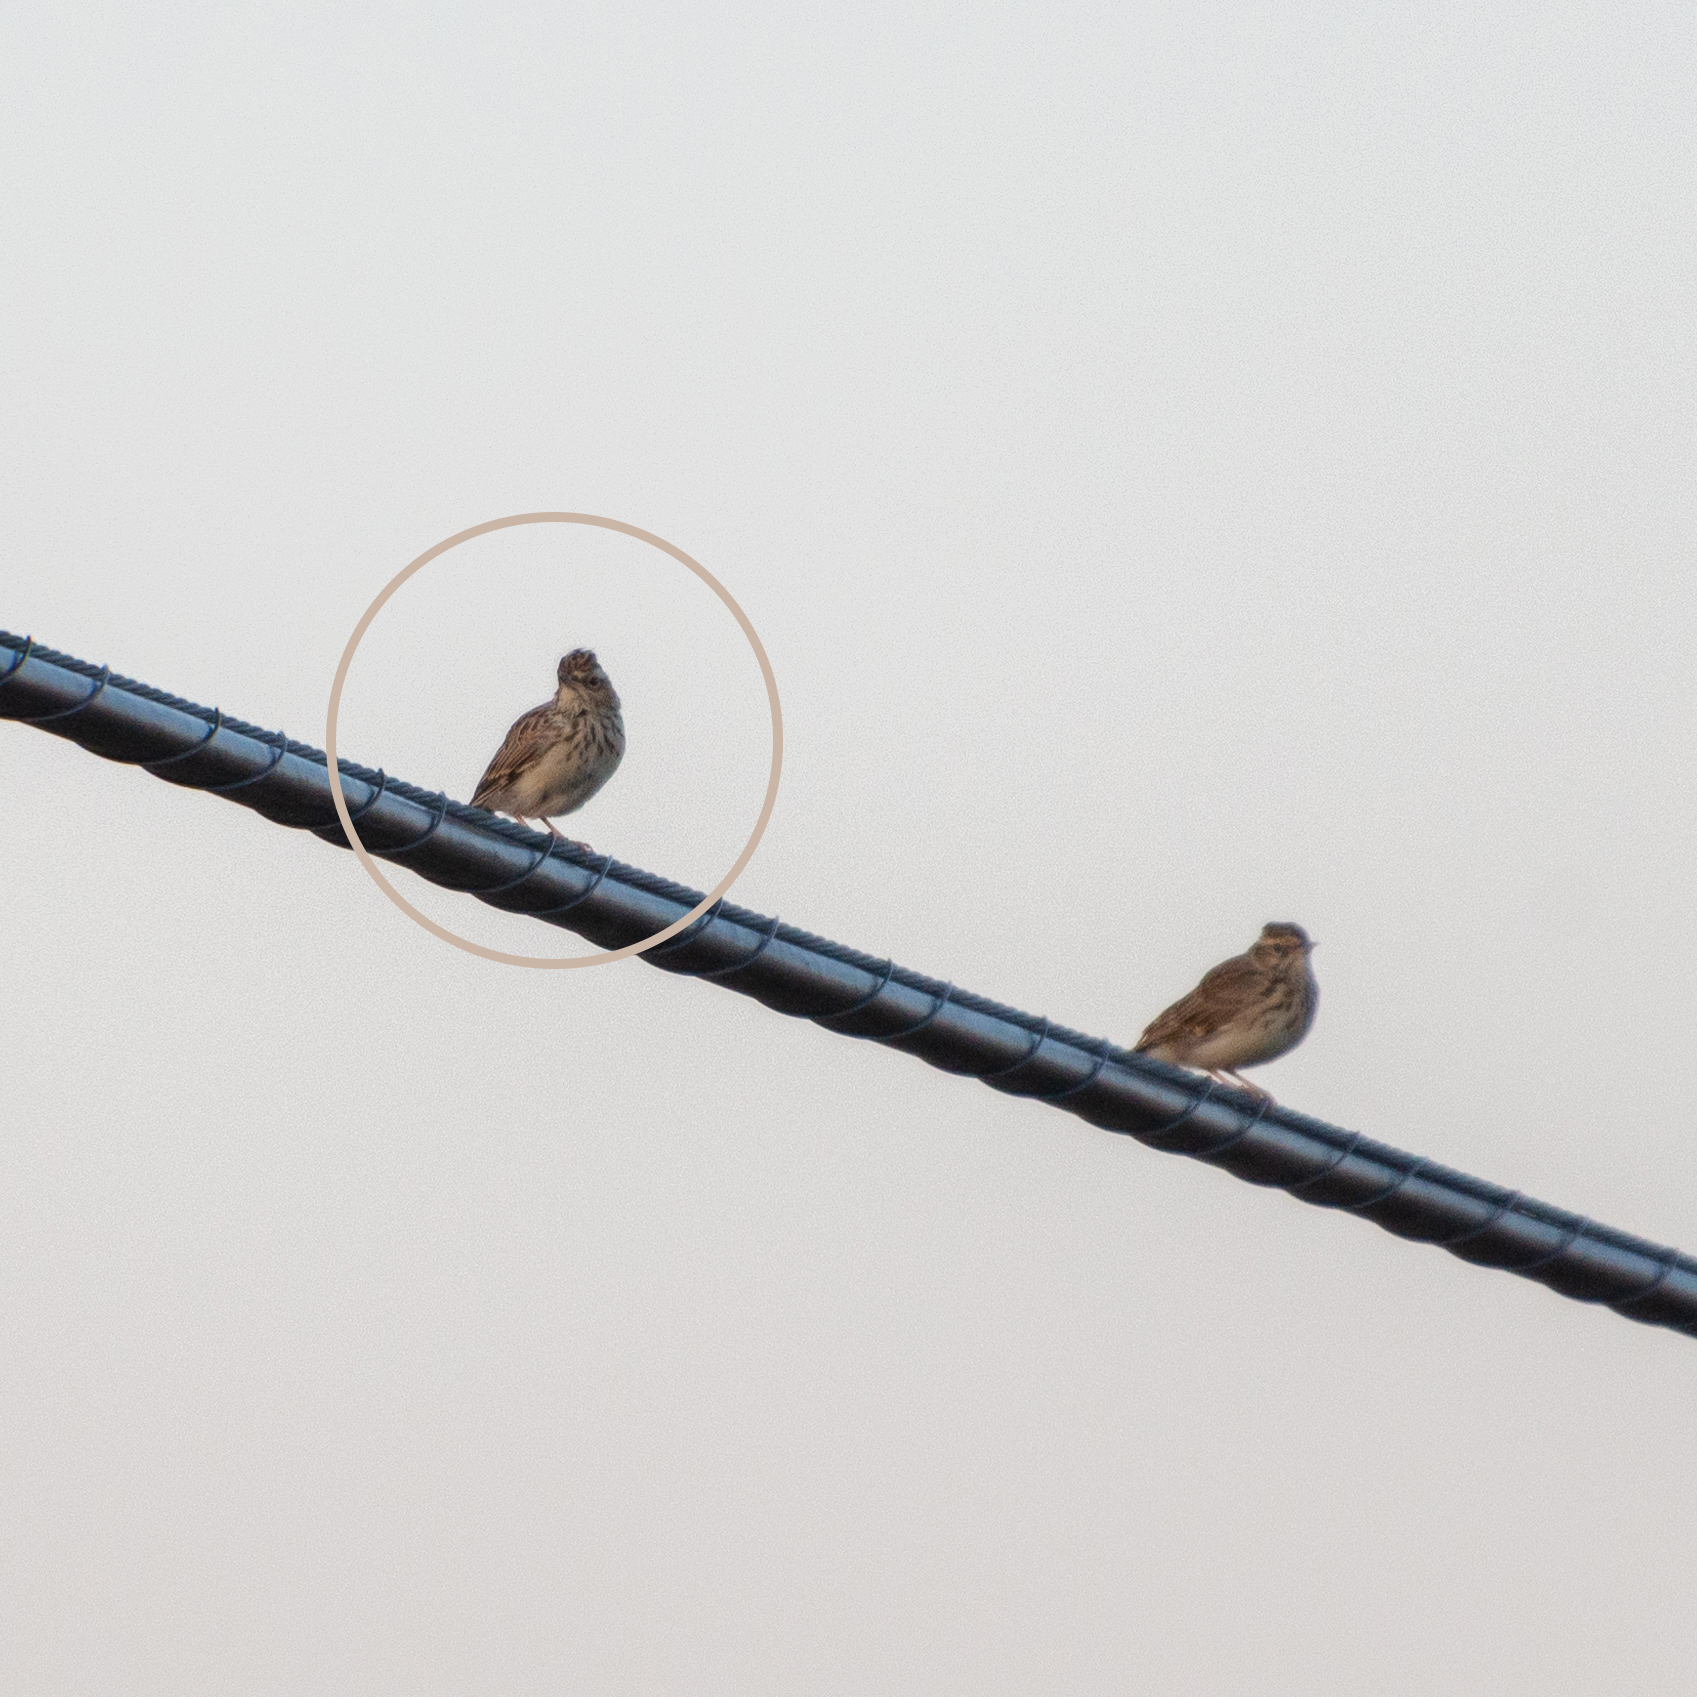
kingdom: Animalia
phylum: Chordata
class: Aves
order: Passeriformes
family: Alaudidae
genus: Lullula
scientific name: Lullula arborea
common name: Woodlark
